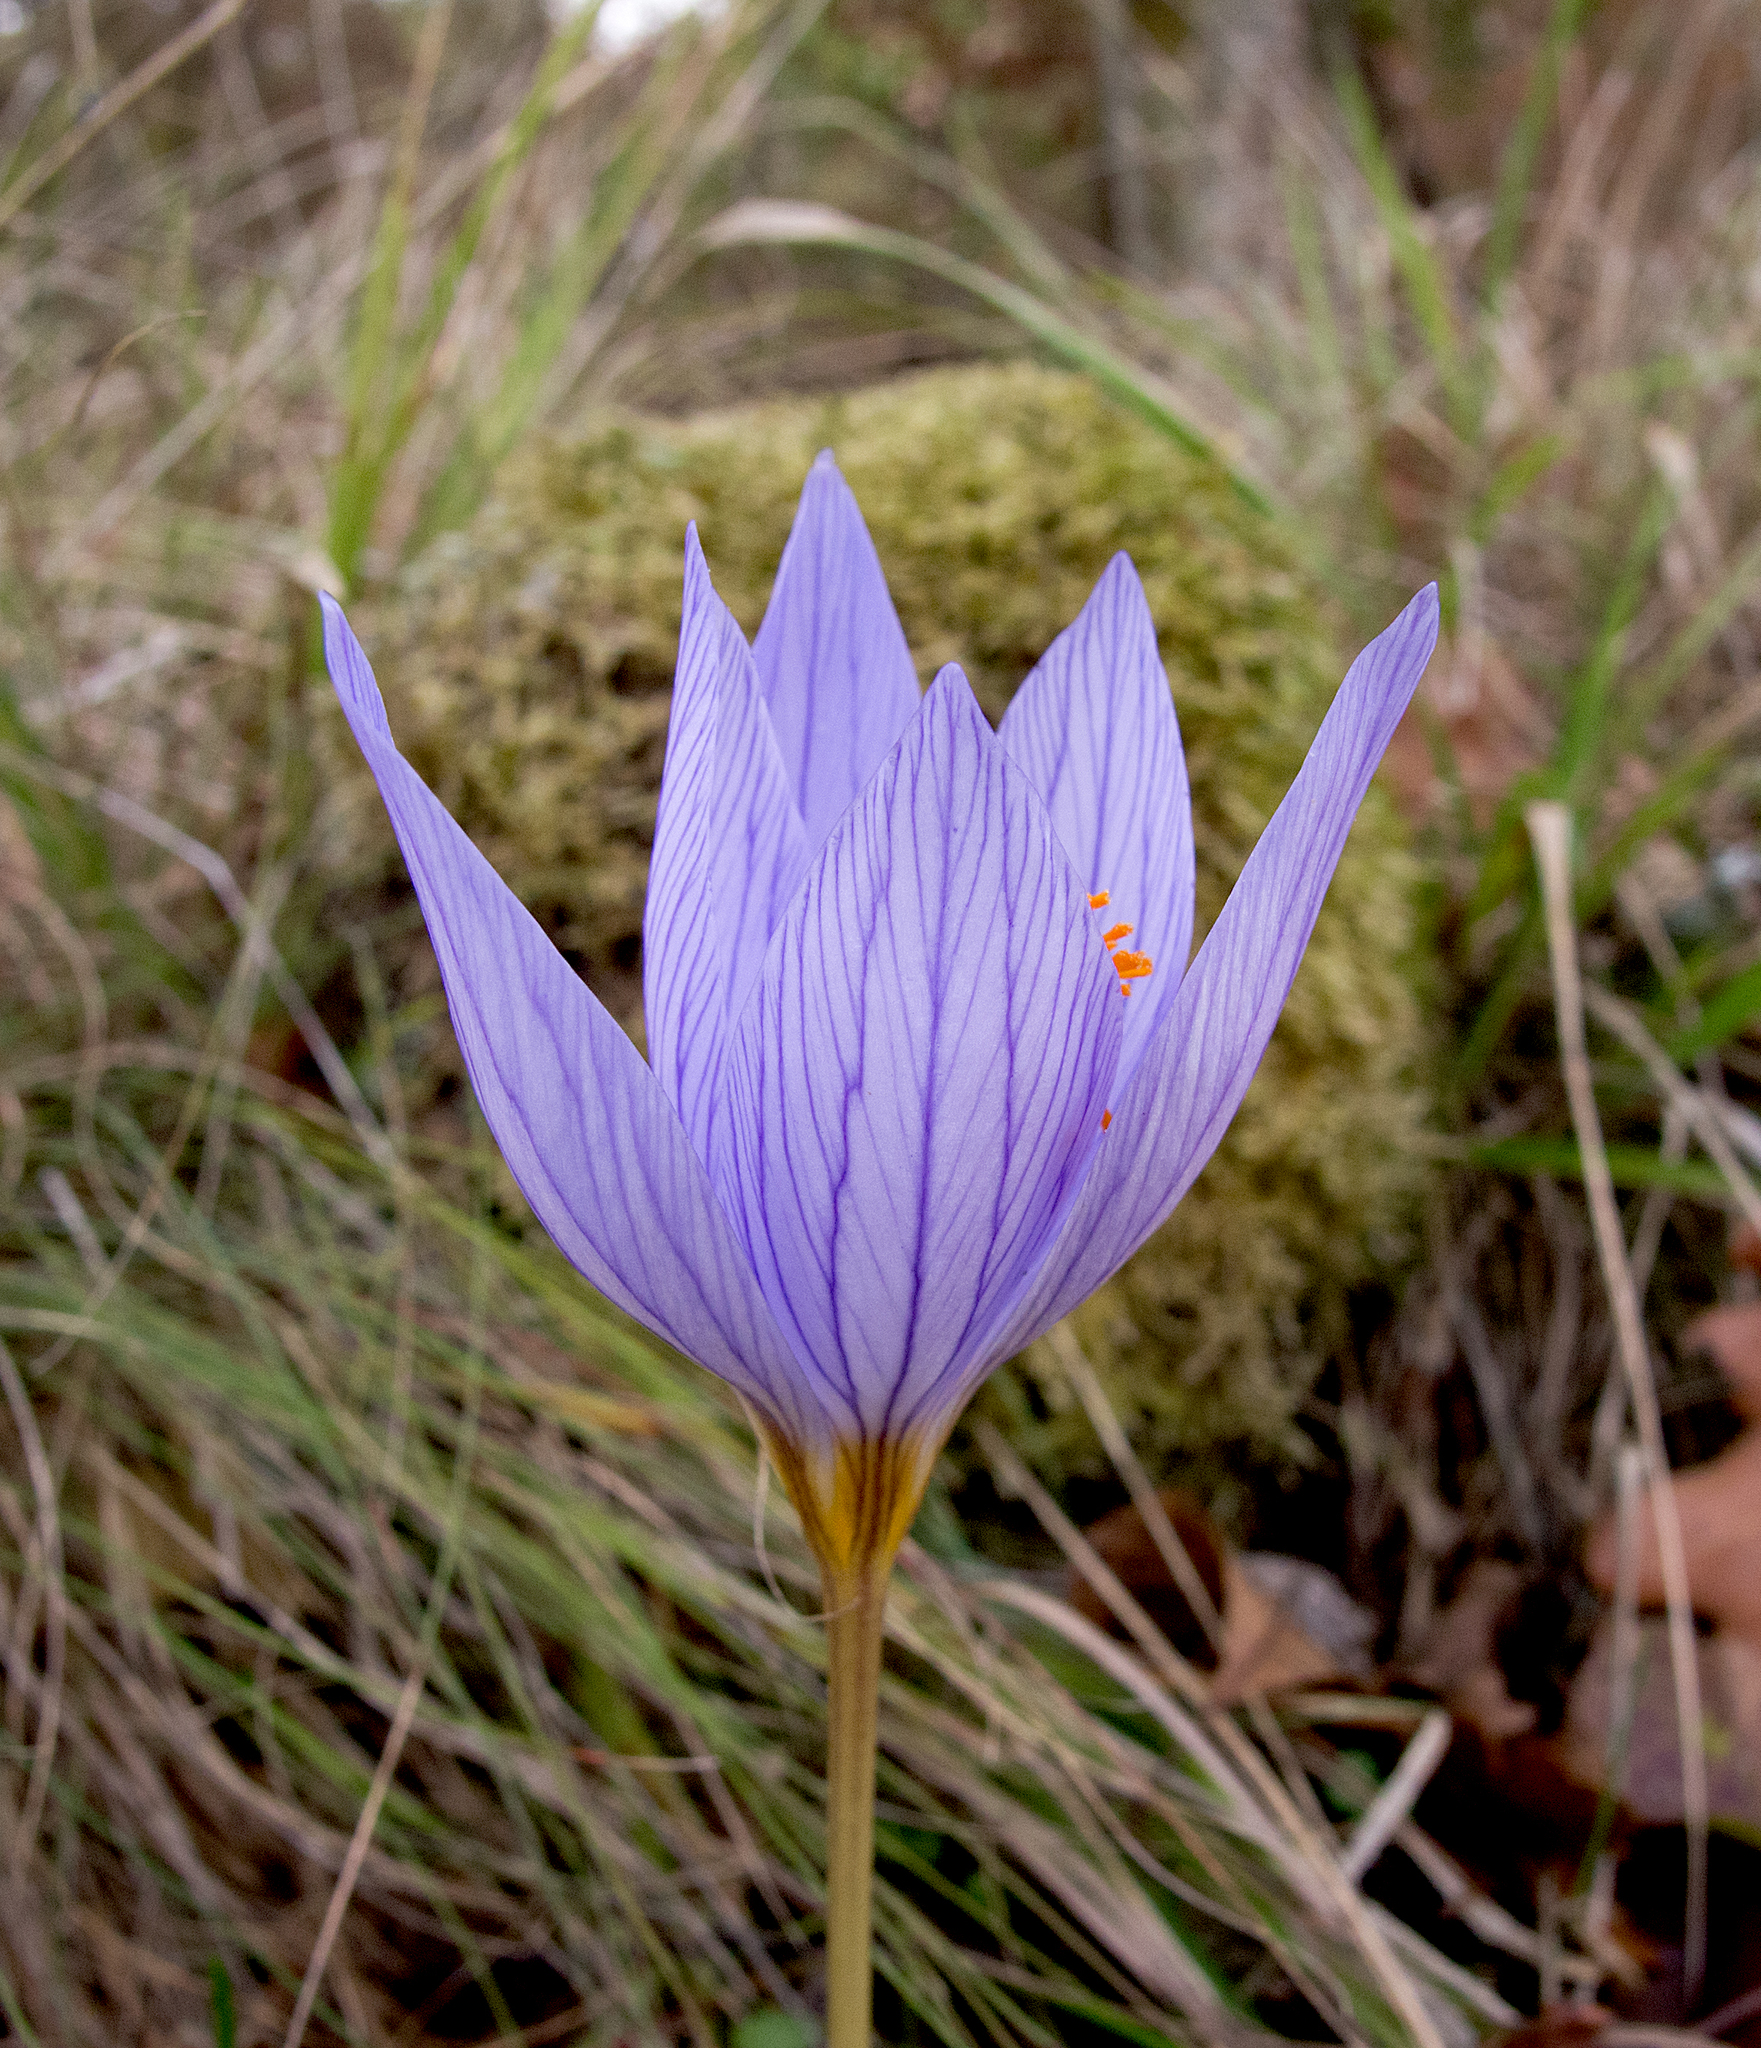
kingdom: Plantae
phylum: Tracheophyta
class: Liliopsida
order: Asparagales
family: Iridaceae
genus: Crocus
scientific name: Crocus ibrahimii
